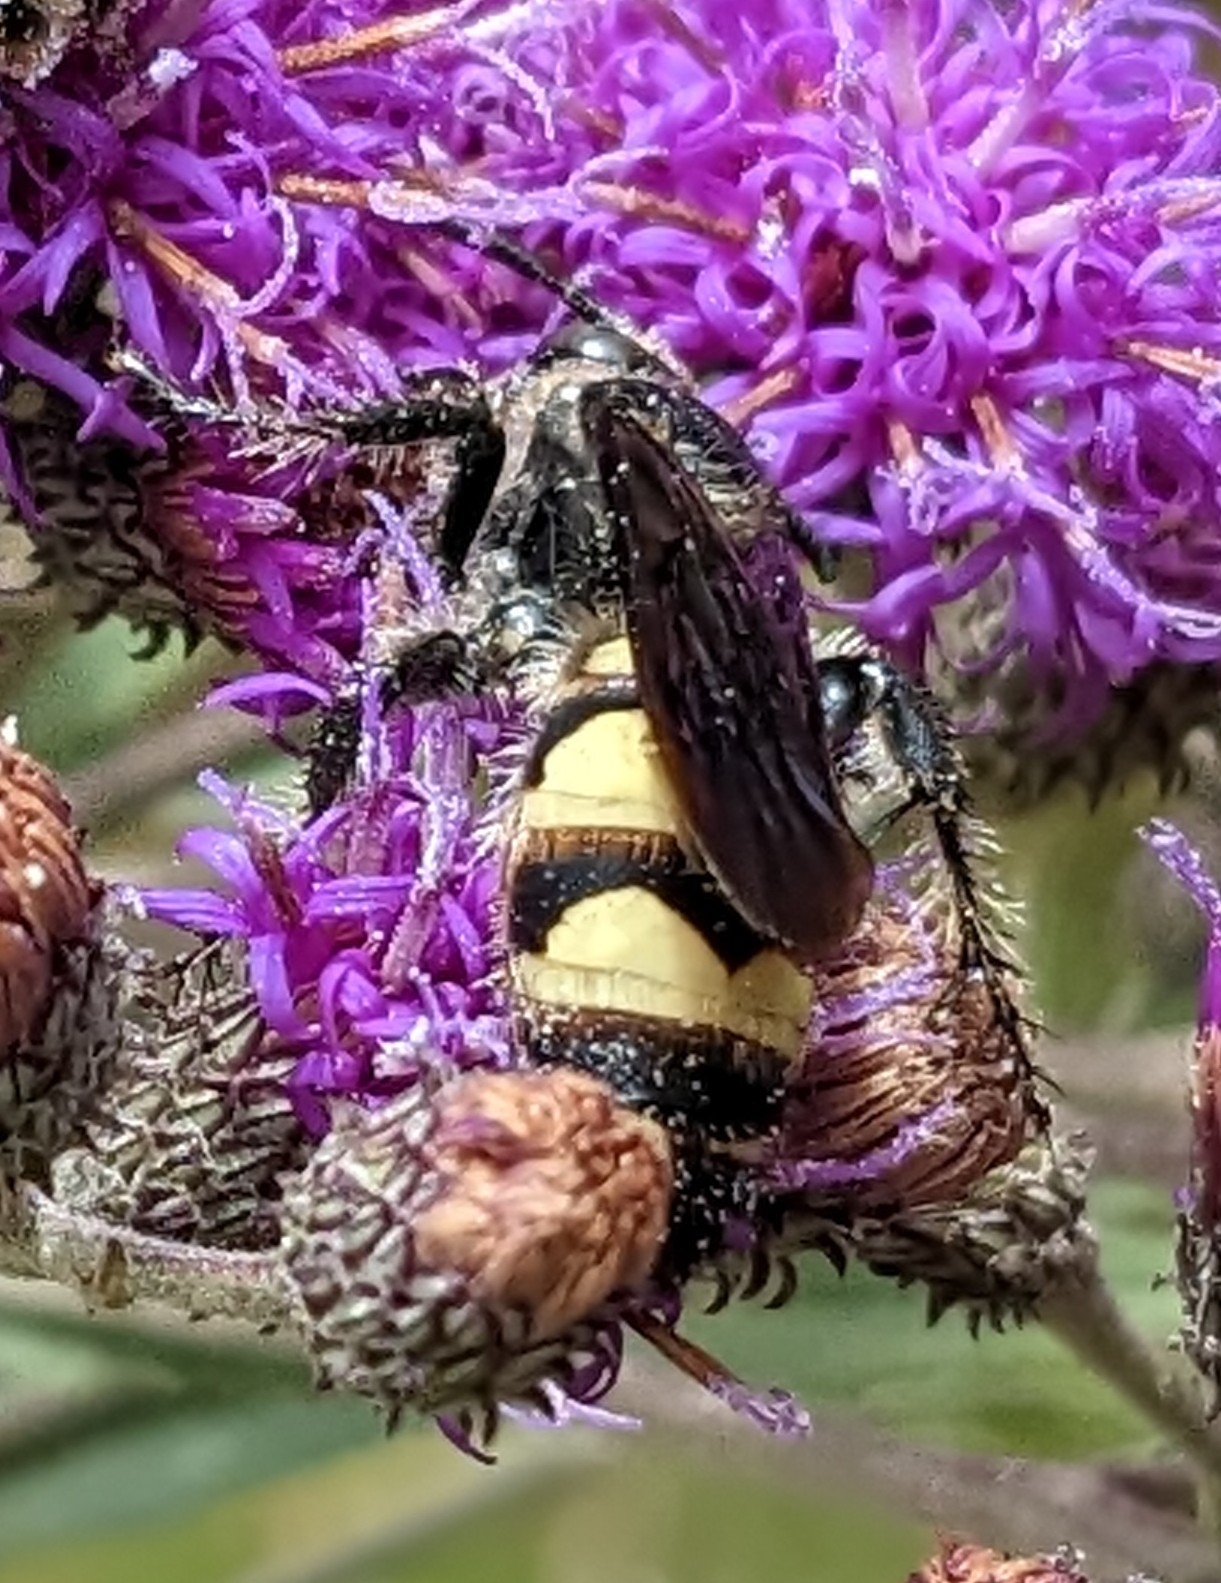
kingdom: Animalia
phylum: Arthropoda
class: Insecta
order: Hymenoptera
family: Scoliidae
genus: Dielis
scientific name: Dielis
